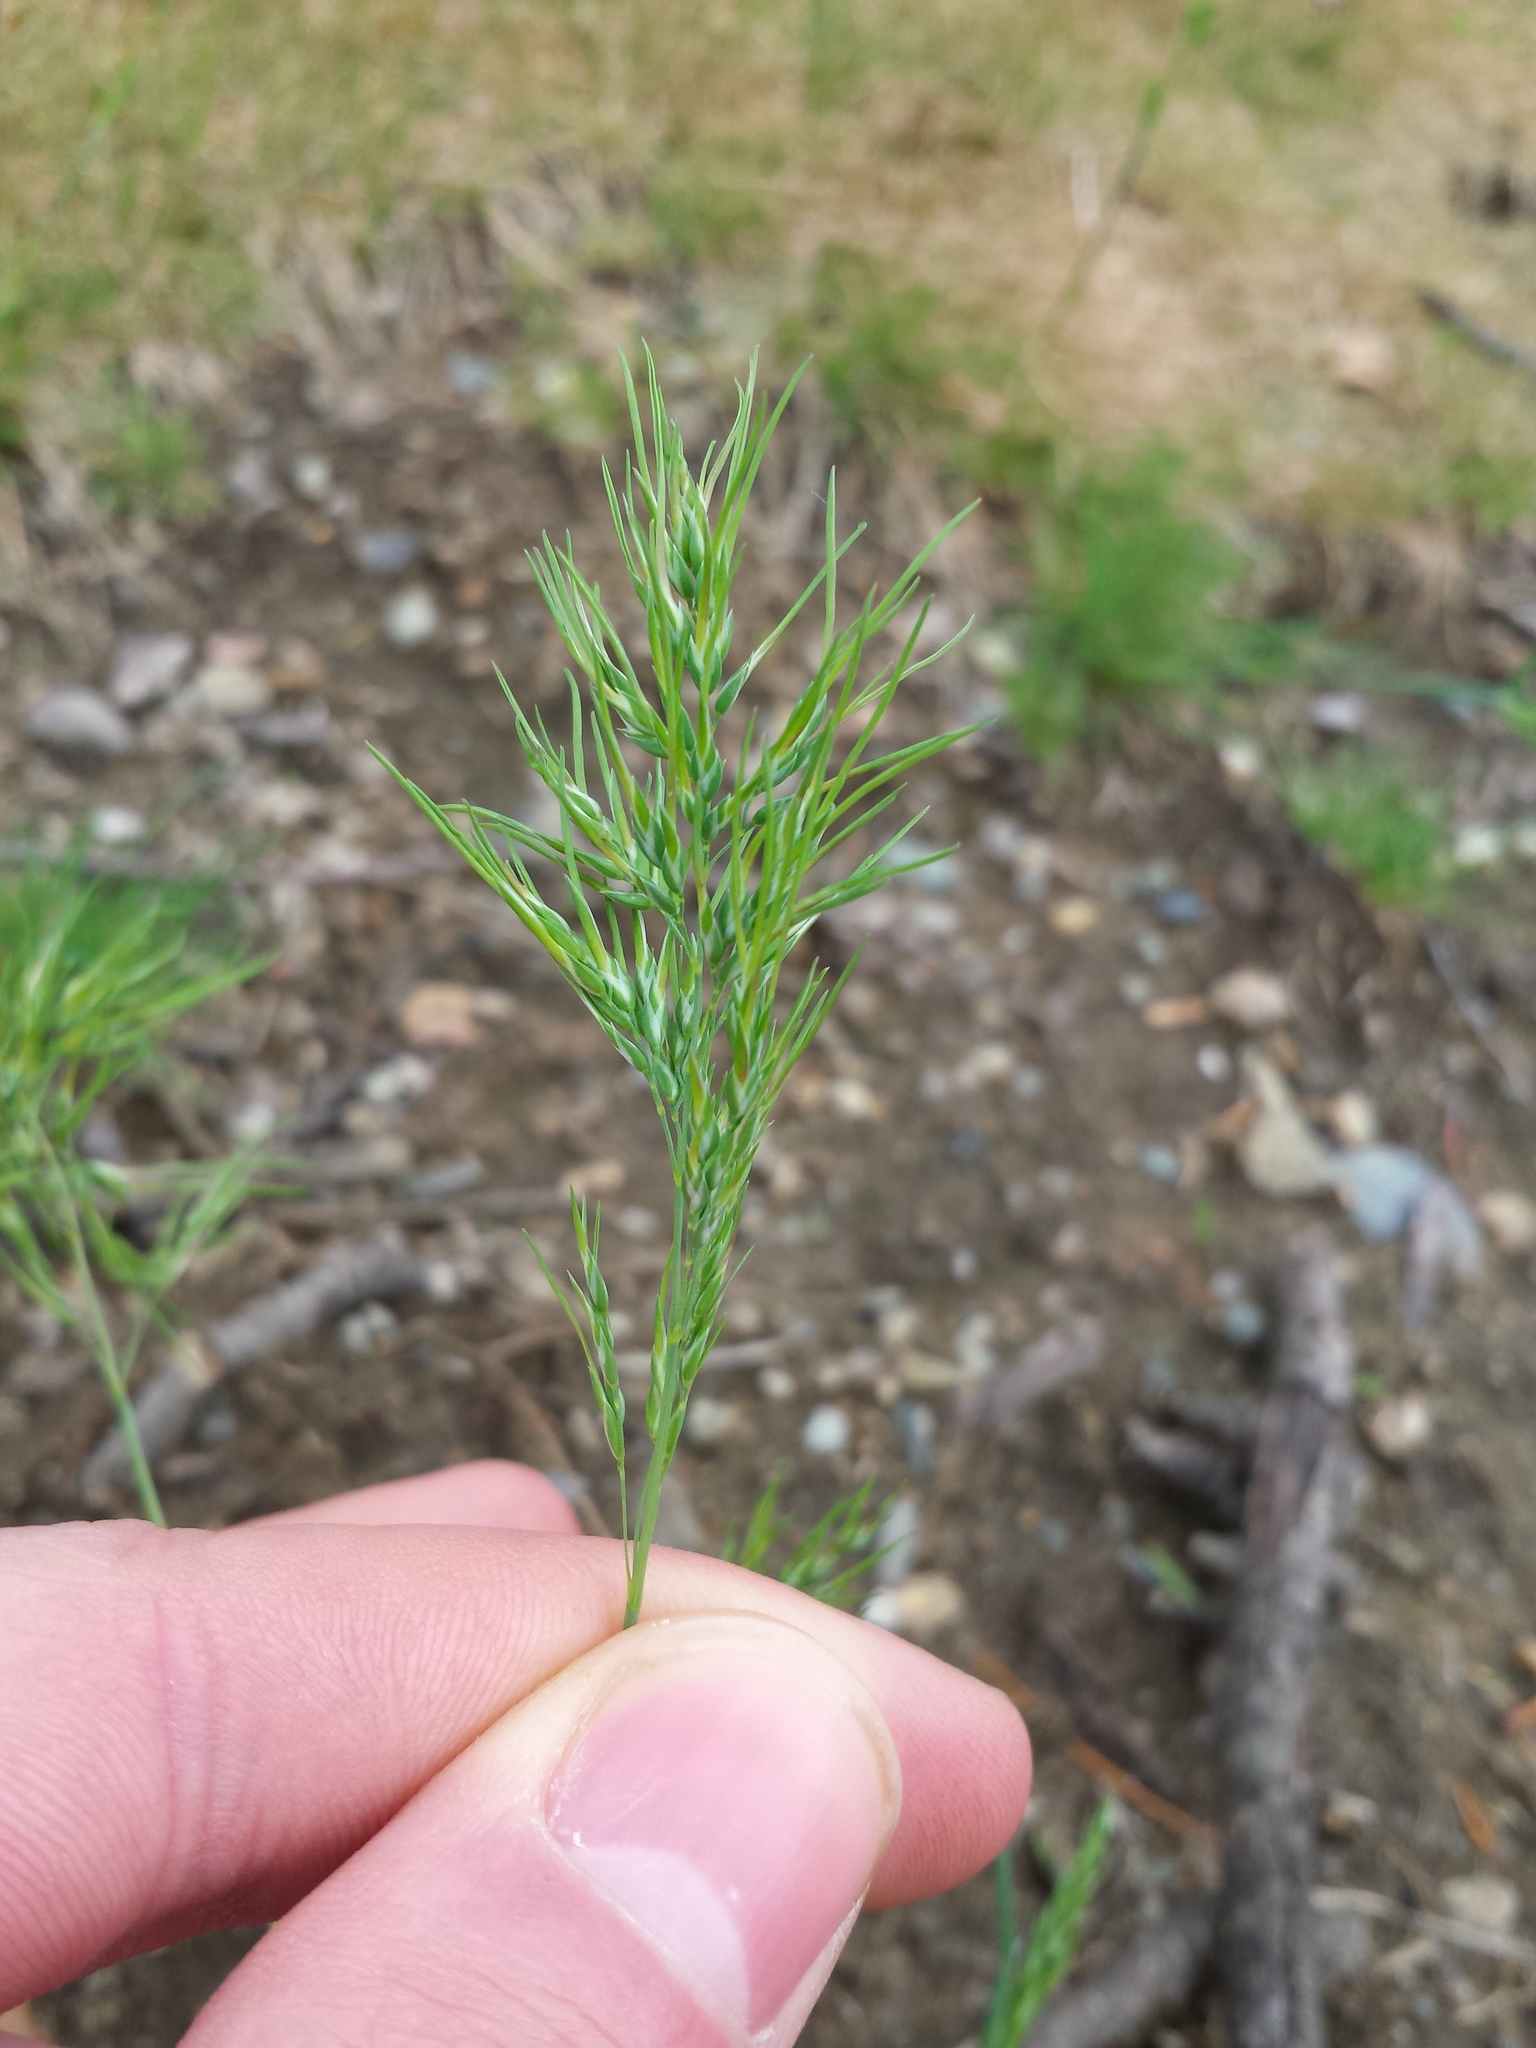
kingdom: Plantae
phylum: Tracheophyta
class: Liliopsida
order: Poales
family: Poaceae
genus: Poa
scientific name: Poa bulbosa
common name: Bulbous bluegrass
